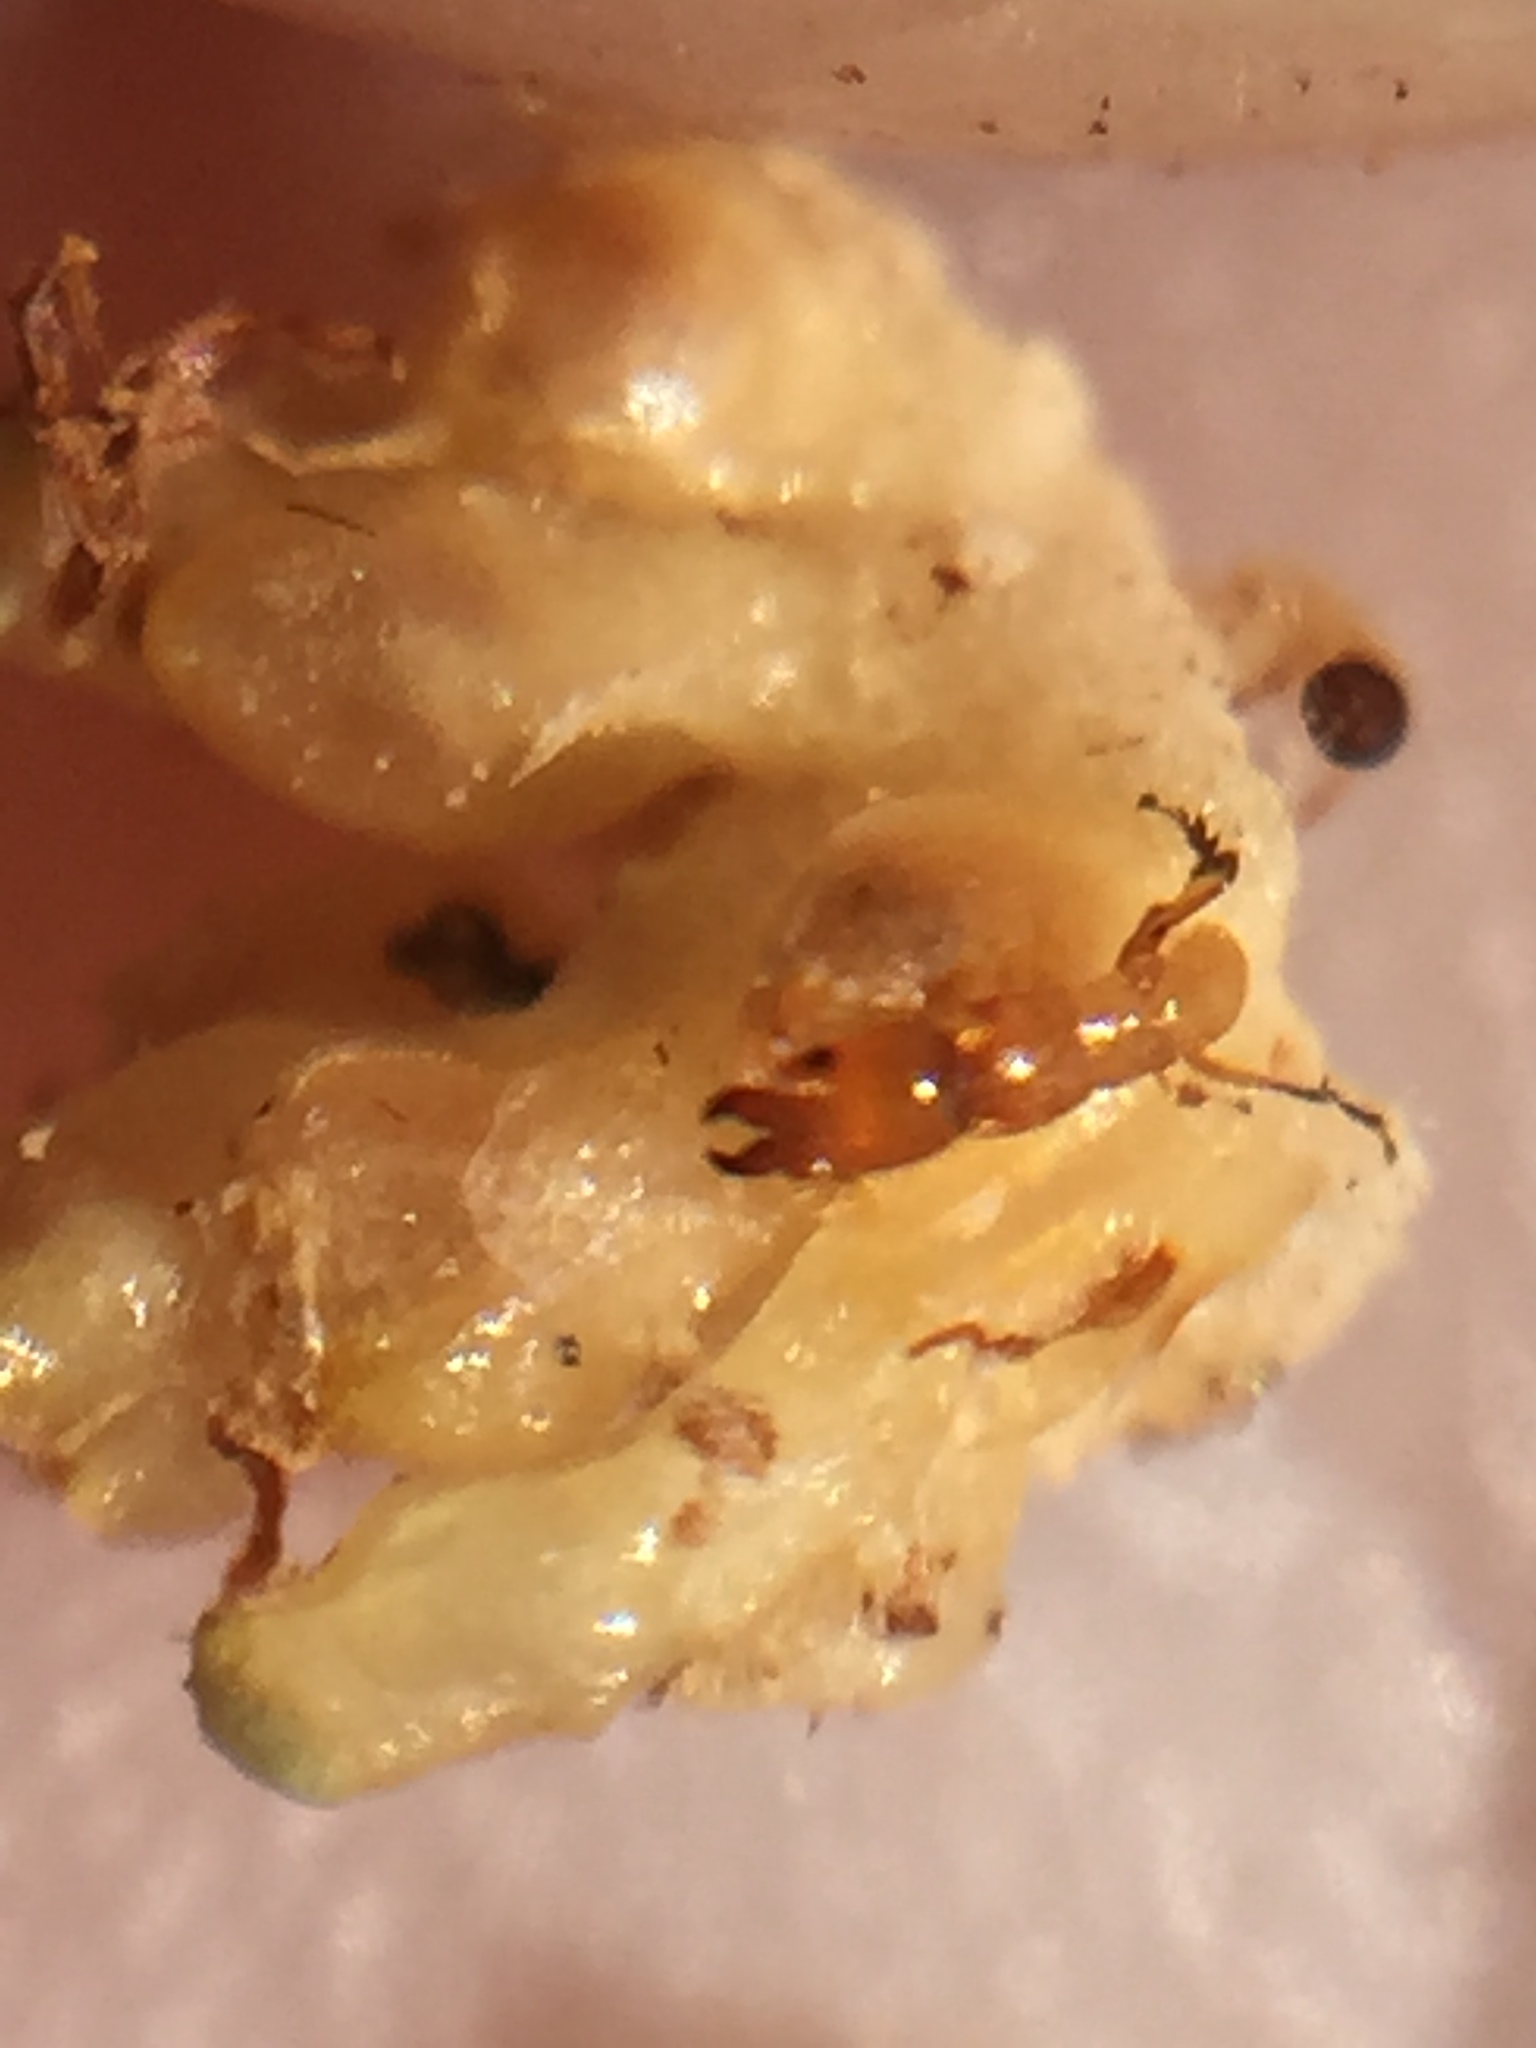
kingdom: Animalia
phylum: Arthropoda
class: Insecta
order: Hymenoptera
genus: Sycoscapter
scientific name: Sycoscapter
